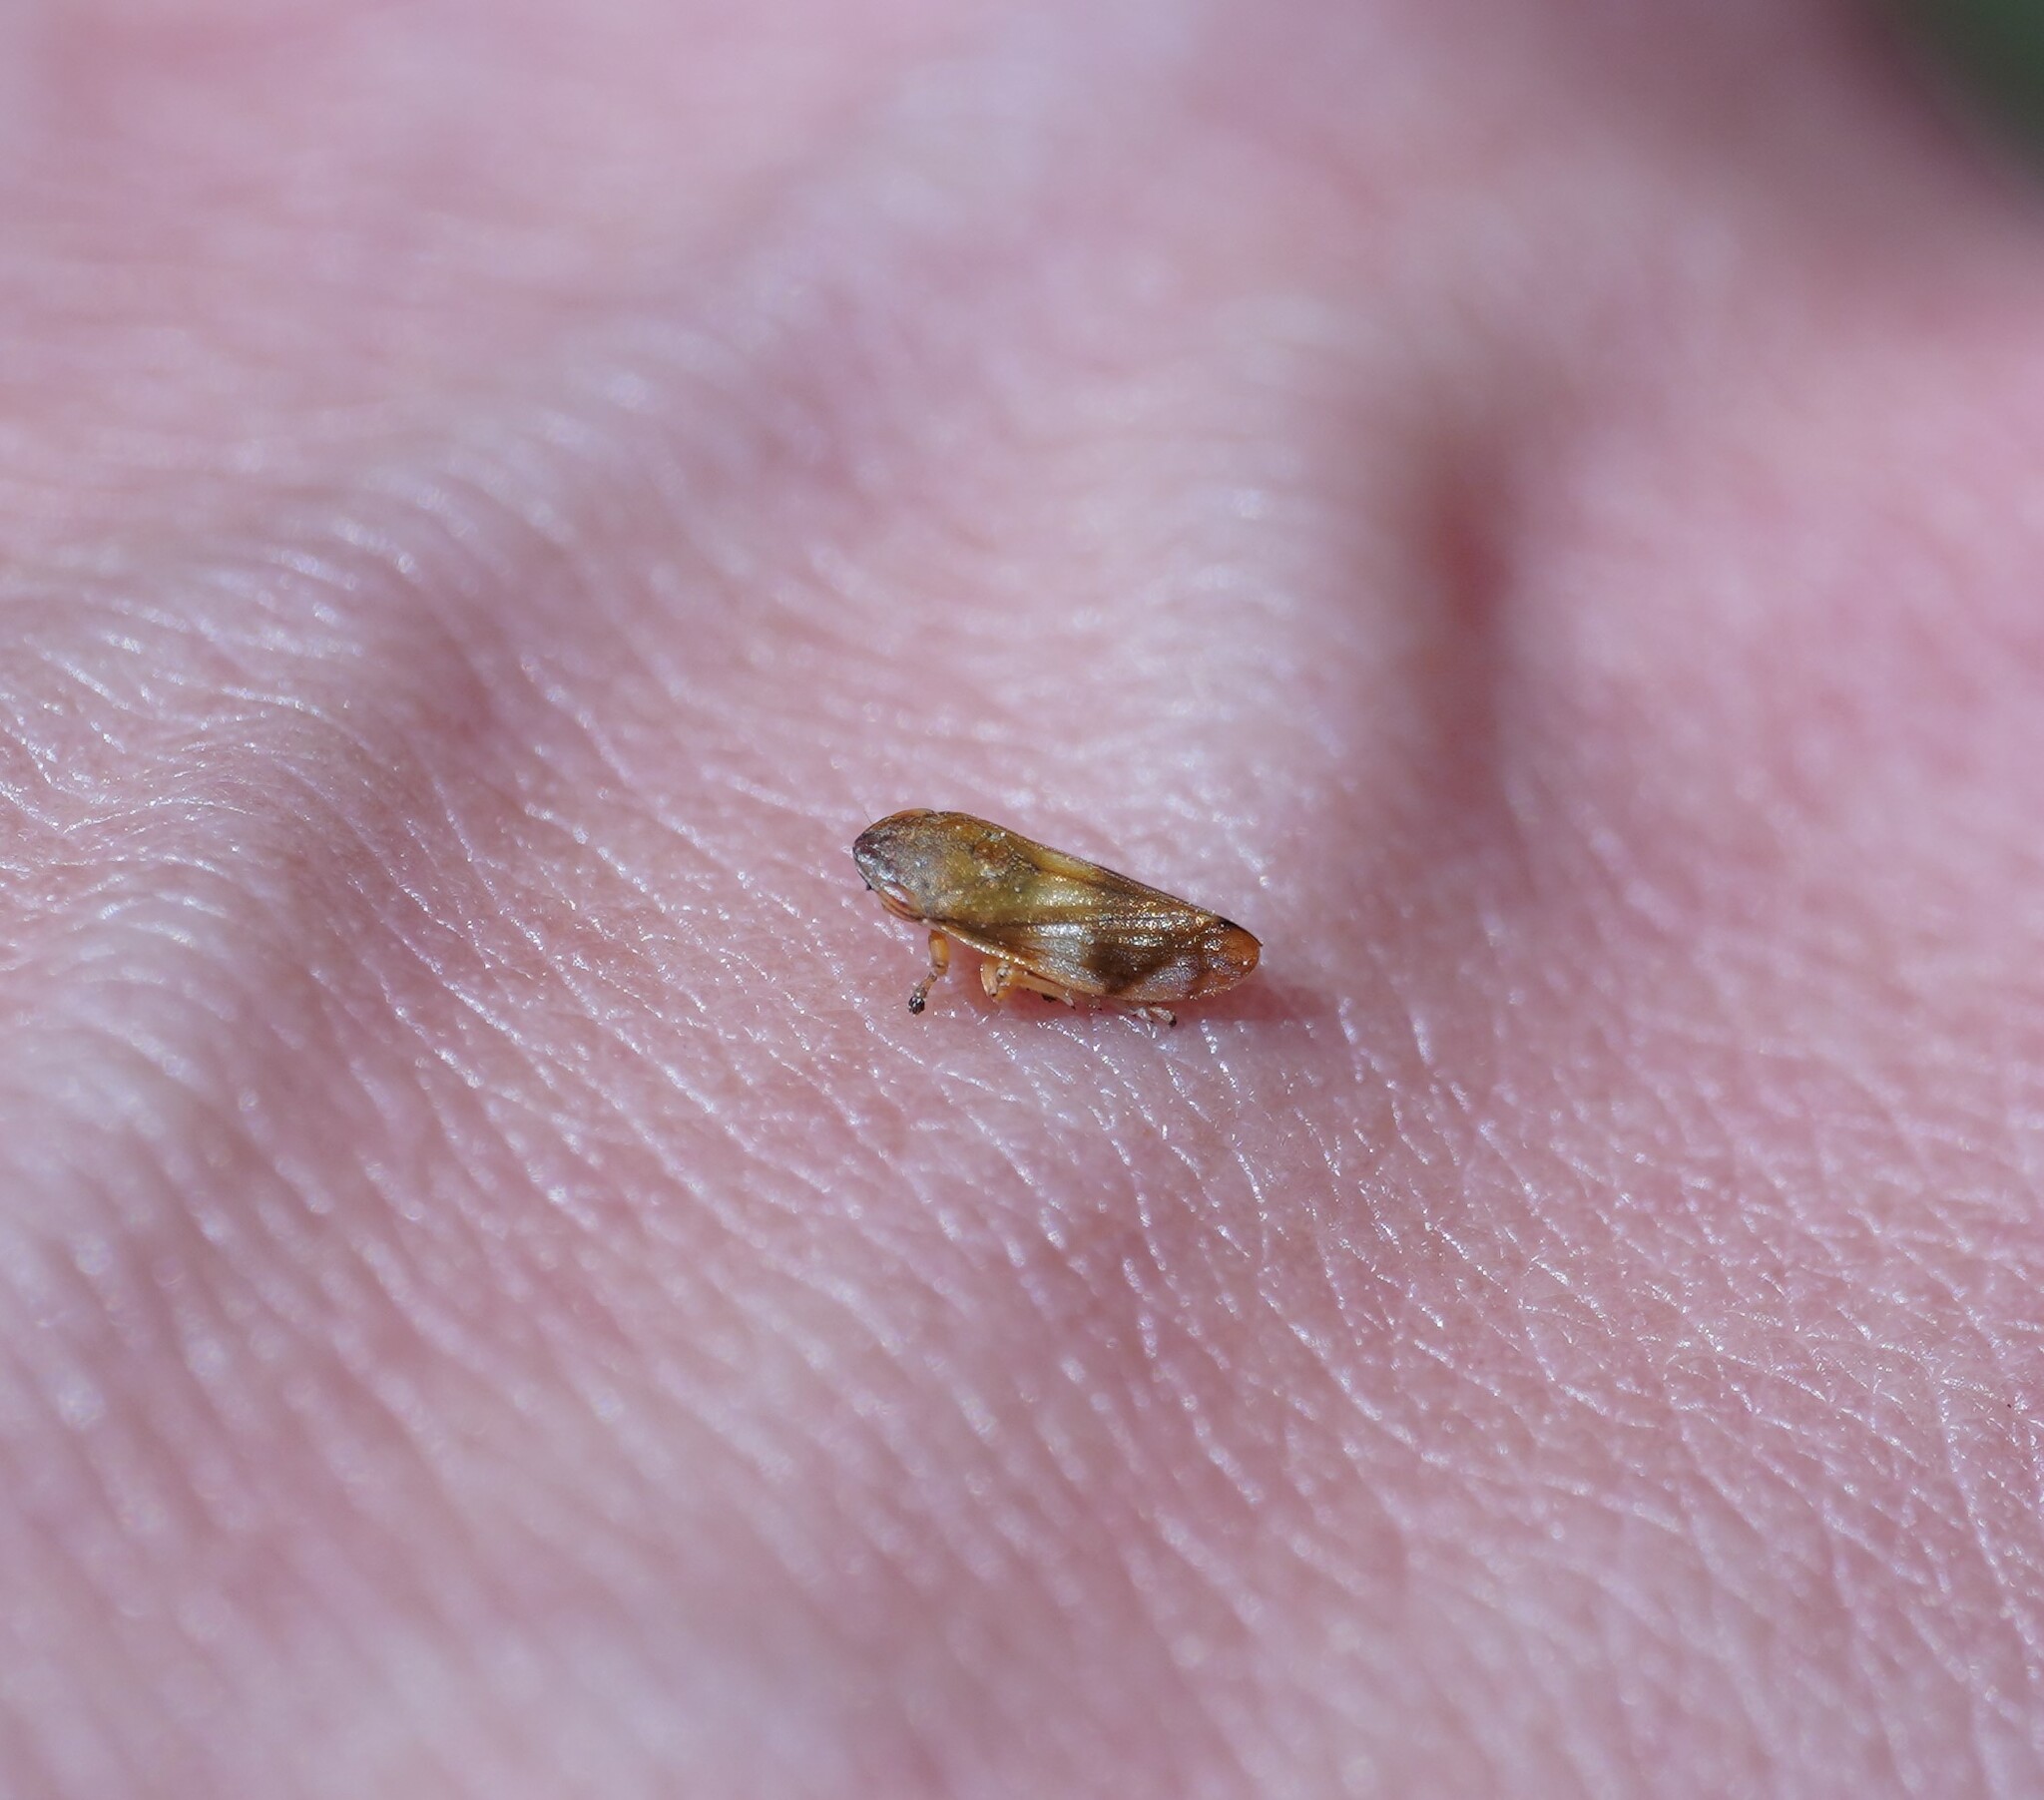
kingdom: Animalia
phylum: Arthropoda
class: Insecta
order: Hemiptera
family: Aphrophoridae
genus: Neophilaenus
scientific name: Neophilaenus campestris
